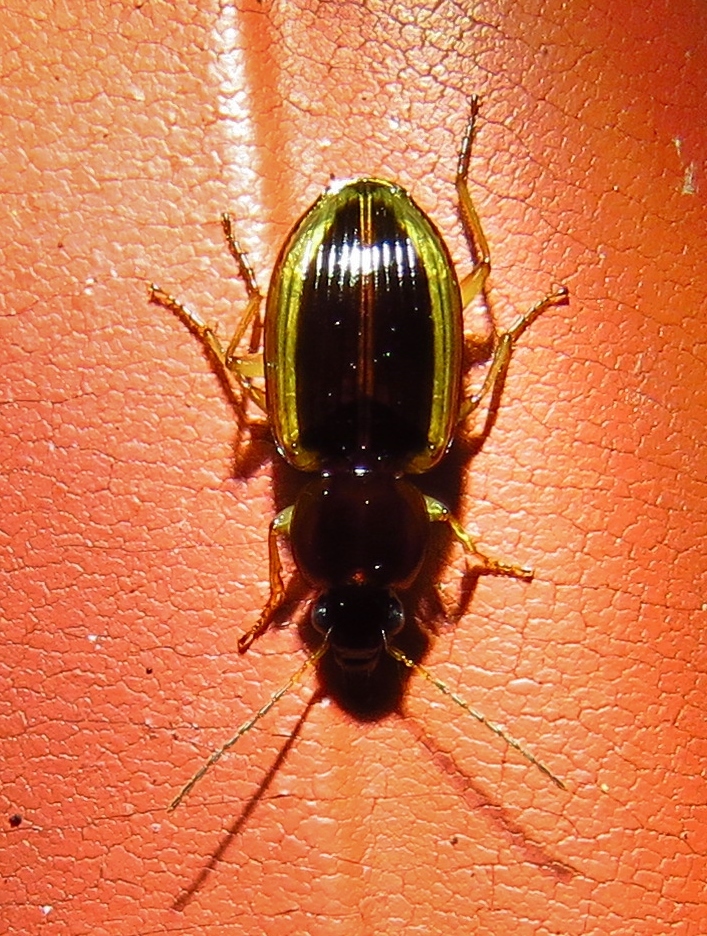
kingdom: Animalia
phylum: Arthropoda
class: Insecta
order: Coleoptera
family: Carabidae
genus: Agonum
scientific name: Agonum pallipes
